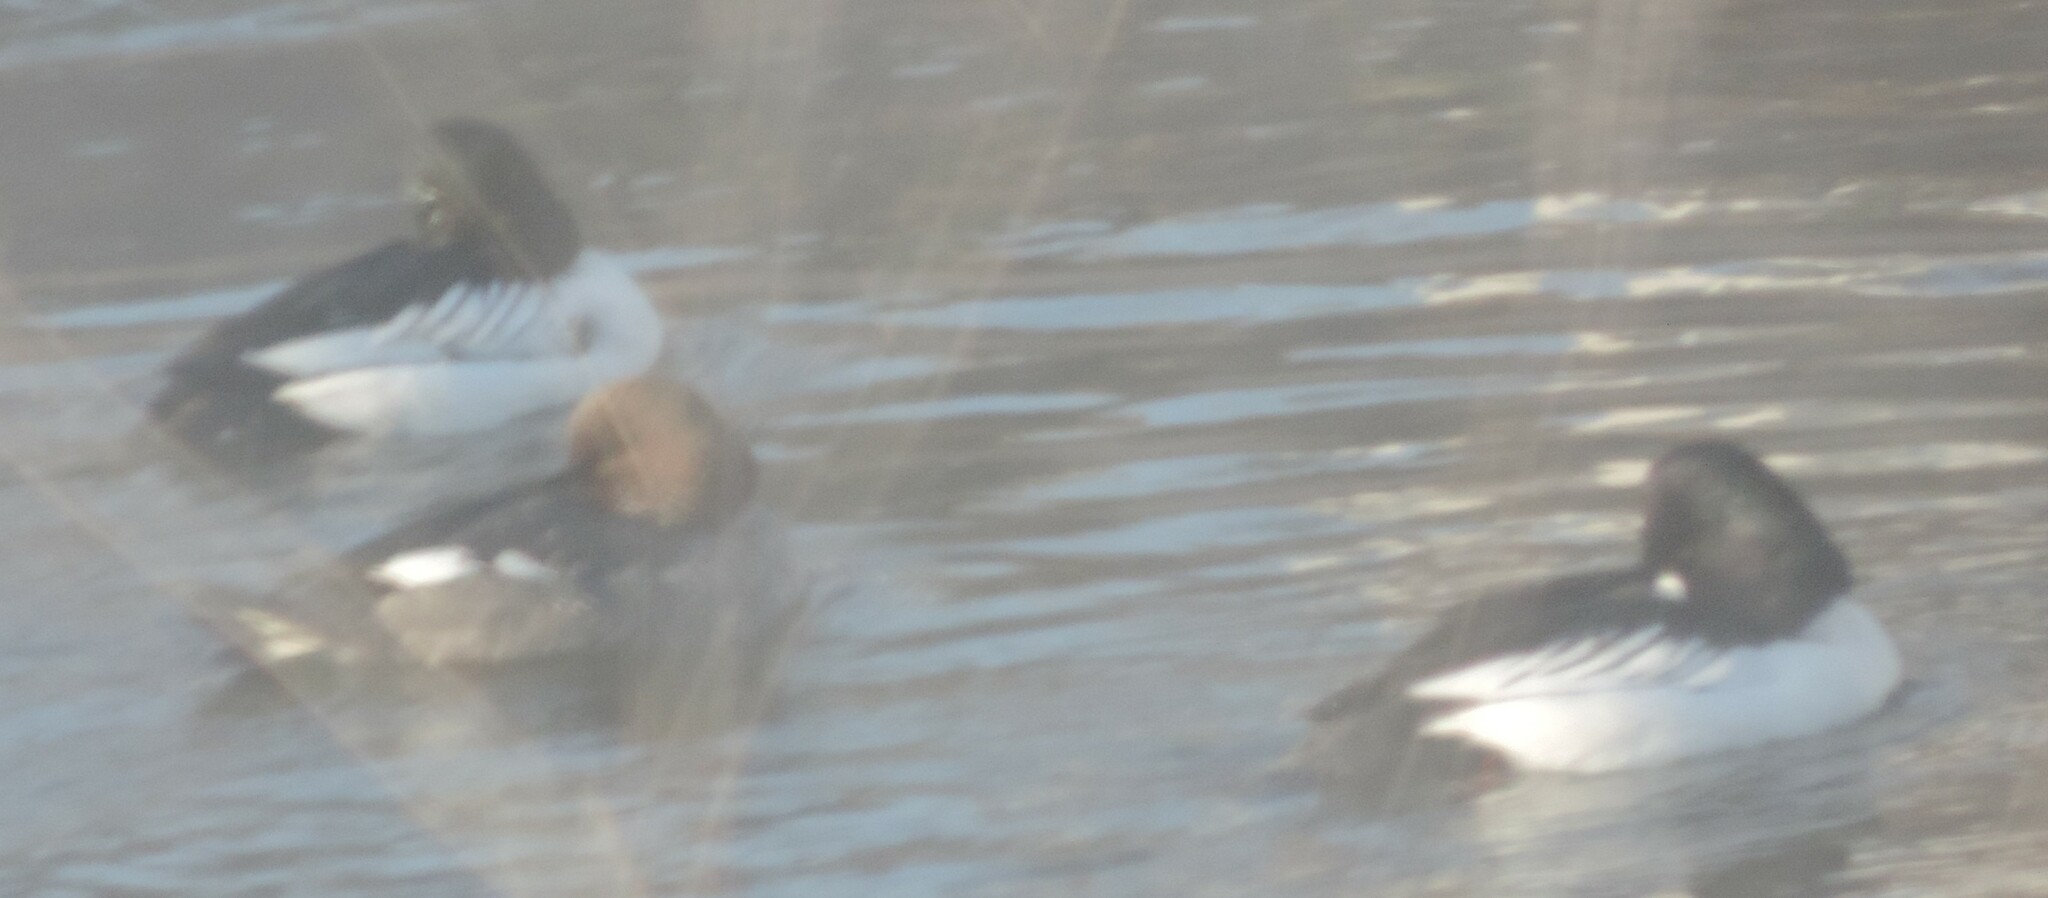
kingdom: Animalia
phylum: Chordata
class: Aves
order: Anseriformes
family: Anatidae
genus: Bucephala
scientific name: Bucephala clangula
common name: Common goldeneye
